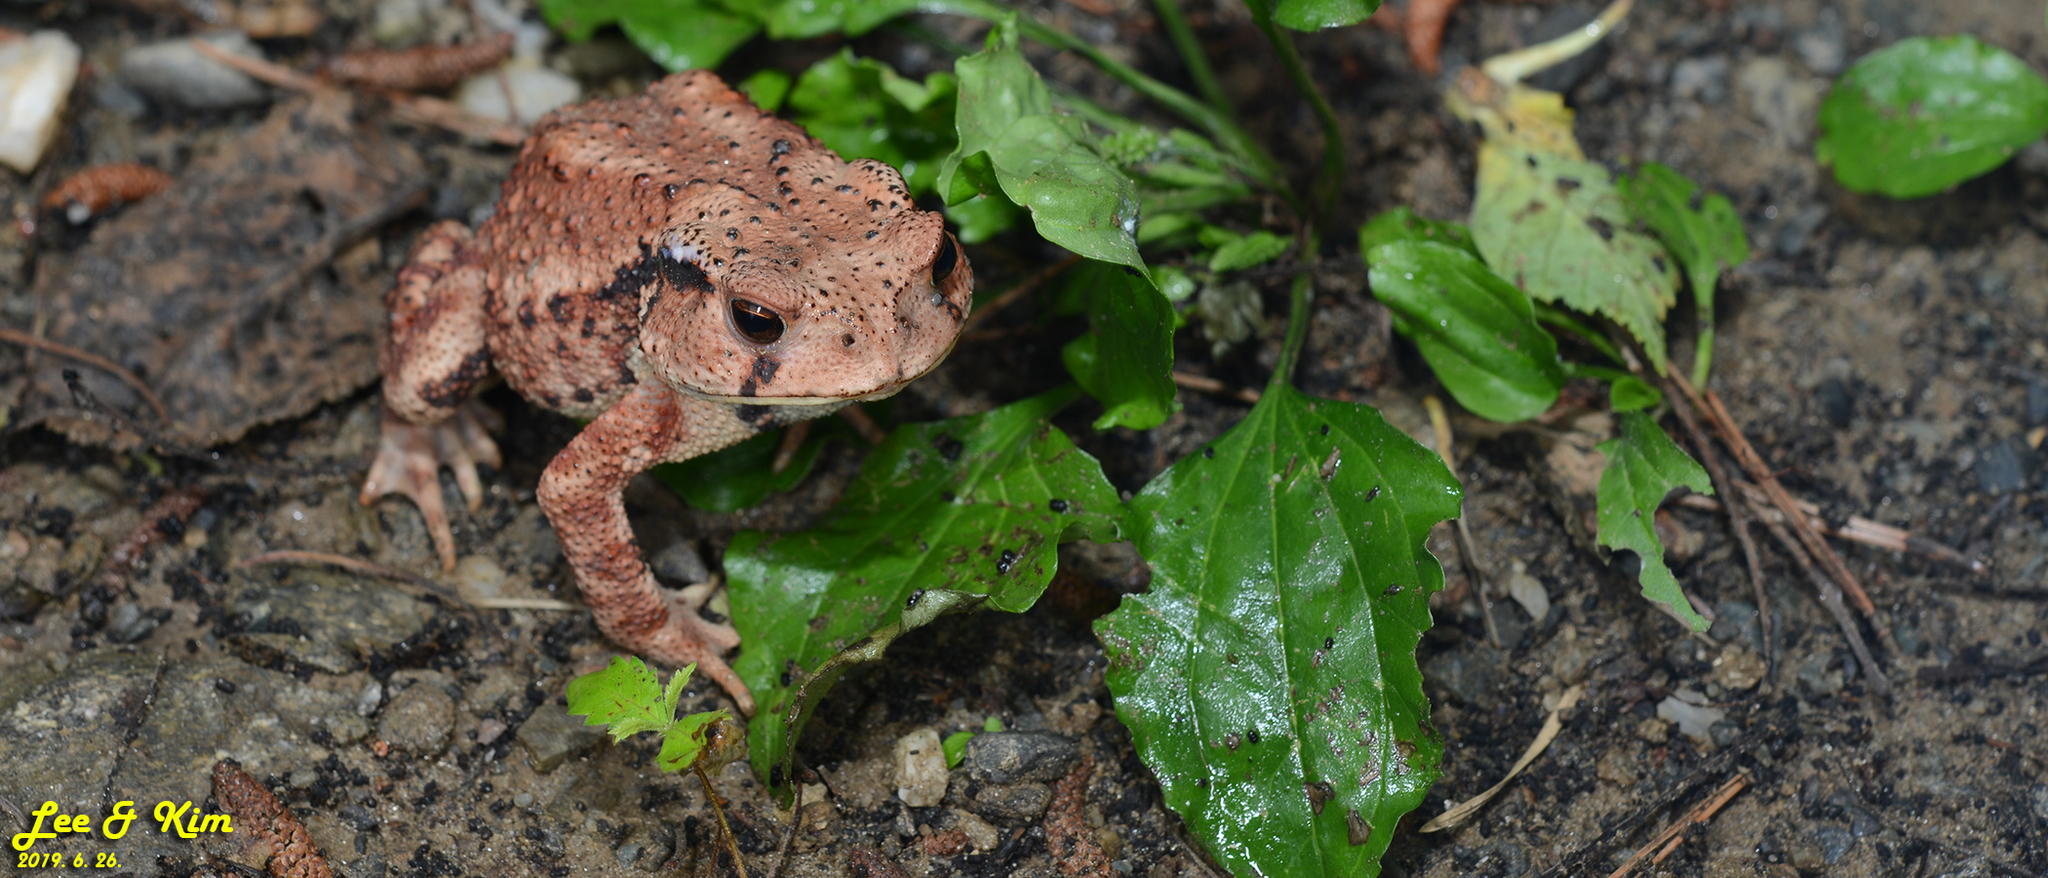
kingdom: Animalia
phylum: Chordata
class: Amphibia
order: Anura
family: Bufonidae
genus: Bufo
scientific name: Bufo gargarizans
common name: Asiatic toad
